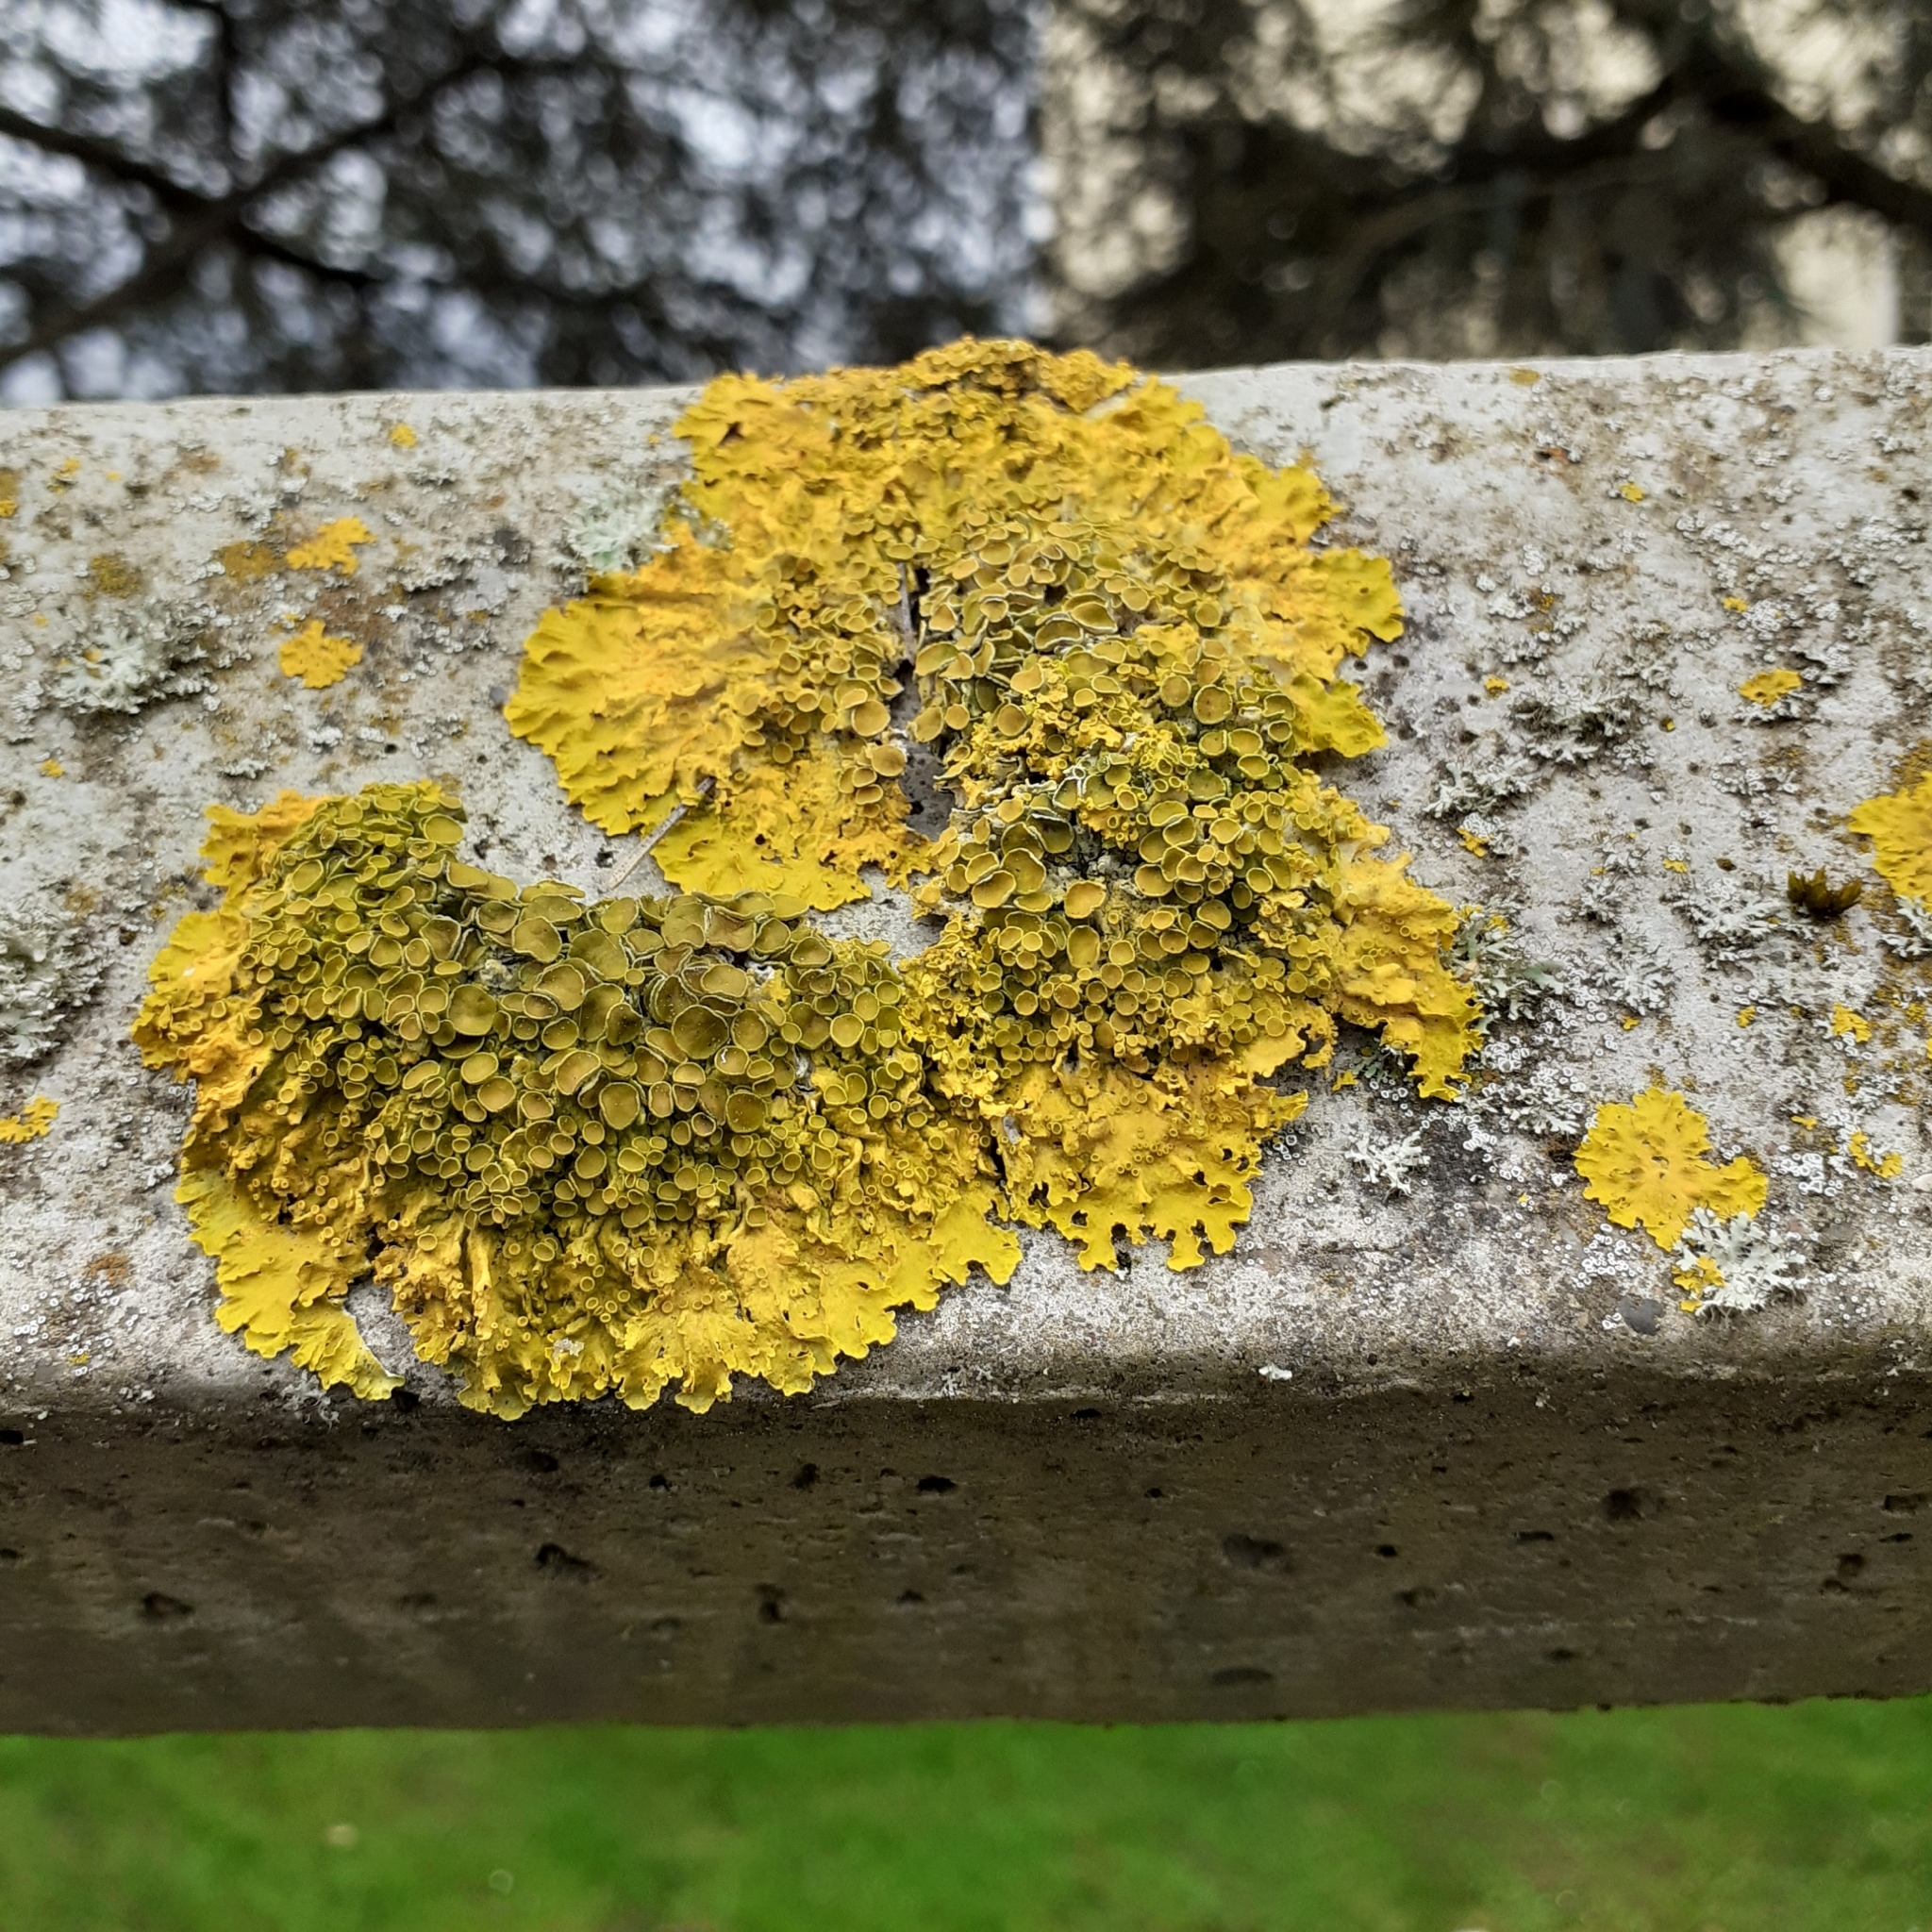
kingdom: Fungi
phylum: Ascomycota
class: Lecanoromycetes
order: Teloschistales
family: Teloschistaceae
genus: Xanthoria
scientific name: Xanthoria parietina
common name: Common orange lichen
